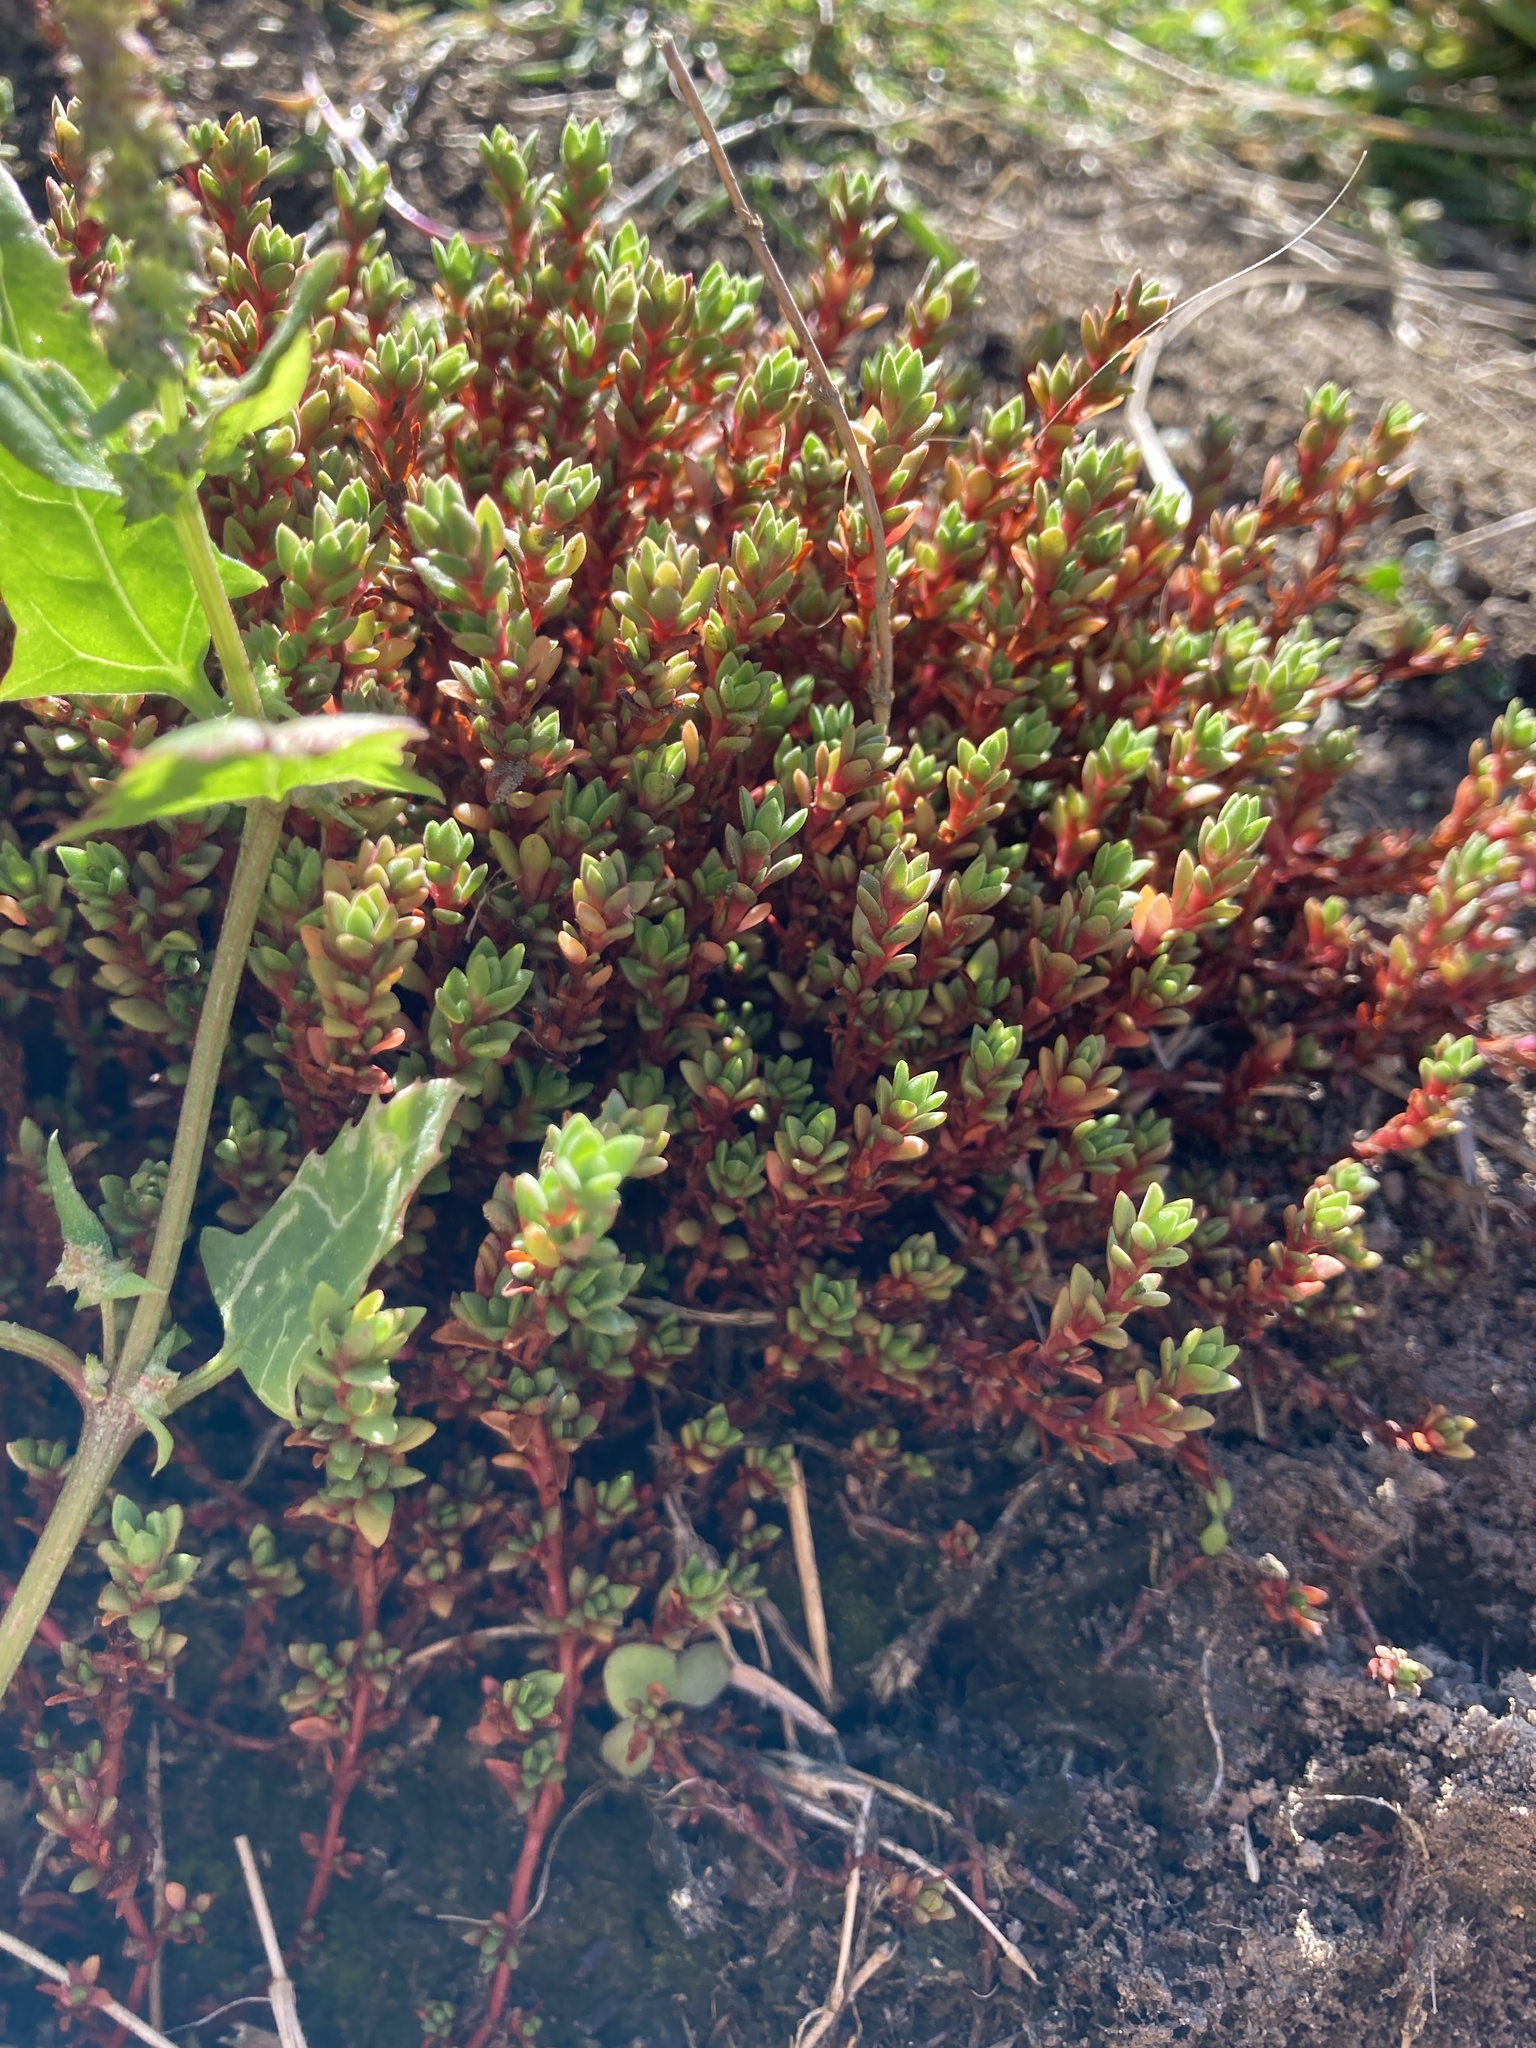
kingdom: Plantae
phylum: Tracheophyta
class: Magnoliopsida
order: Saxifragales
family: Crassulaceae
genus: Crassula
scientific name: Crassula moschata
